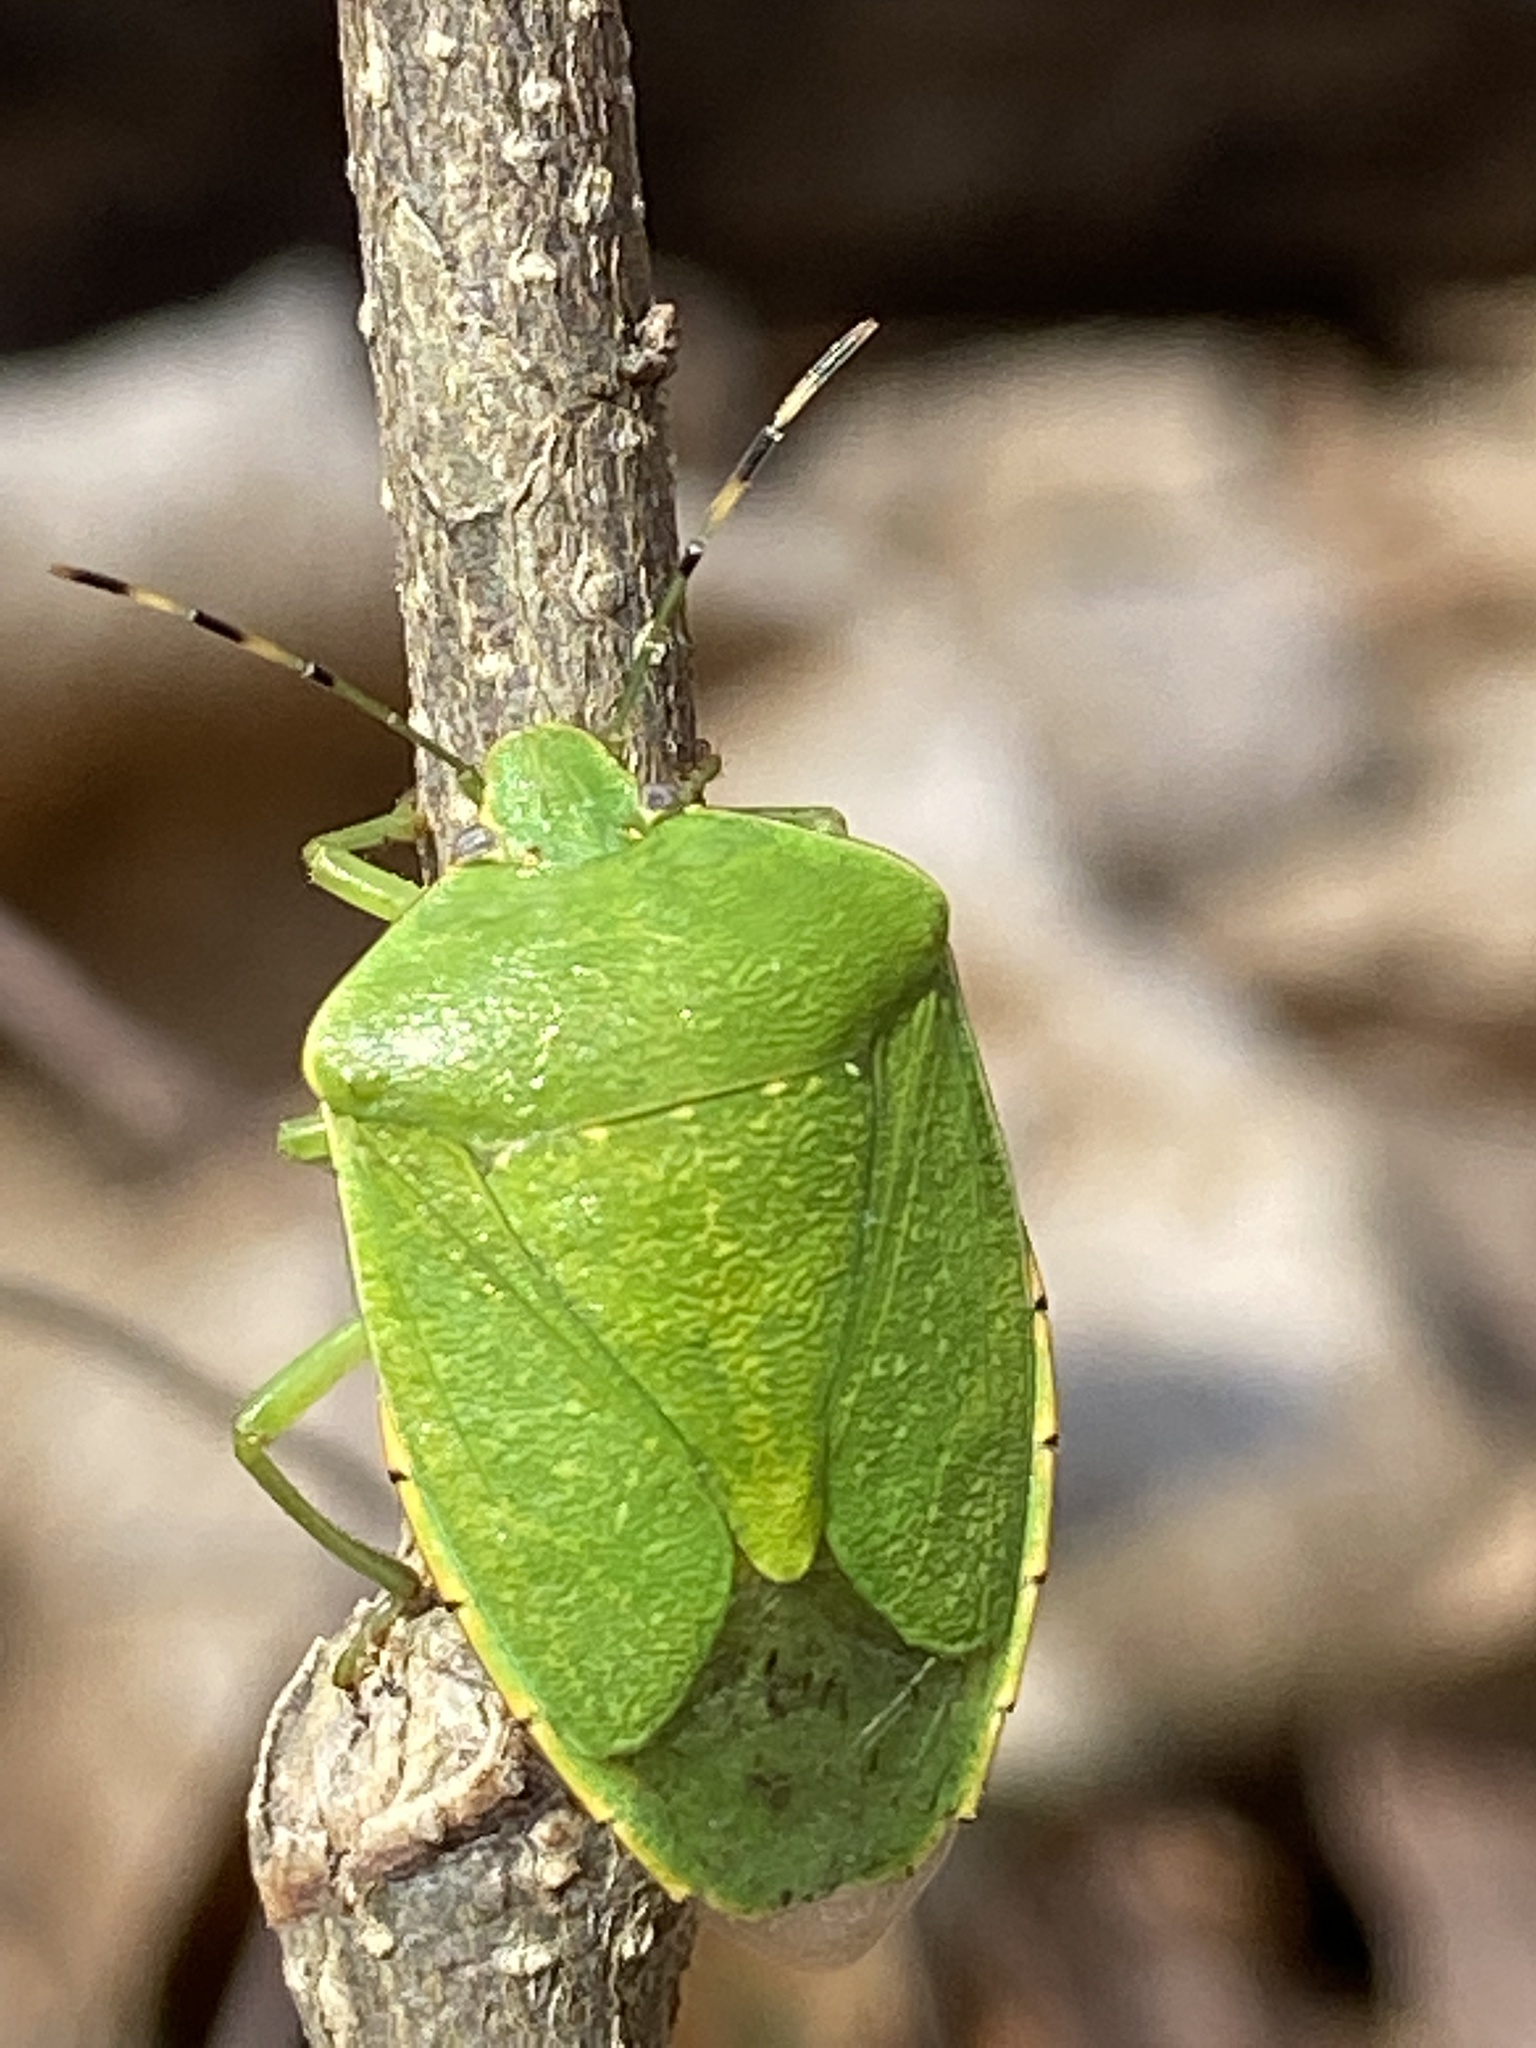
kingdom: Animalia
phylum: Arthropoda
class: Insecta
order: Hemiptera
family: Pentatomidae
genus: Chinavia
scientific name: Chinavia hilaris
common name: Green stink bug
